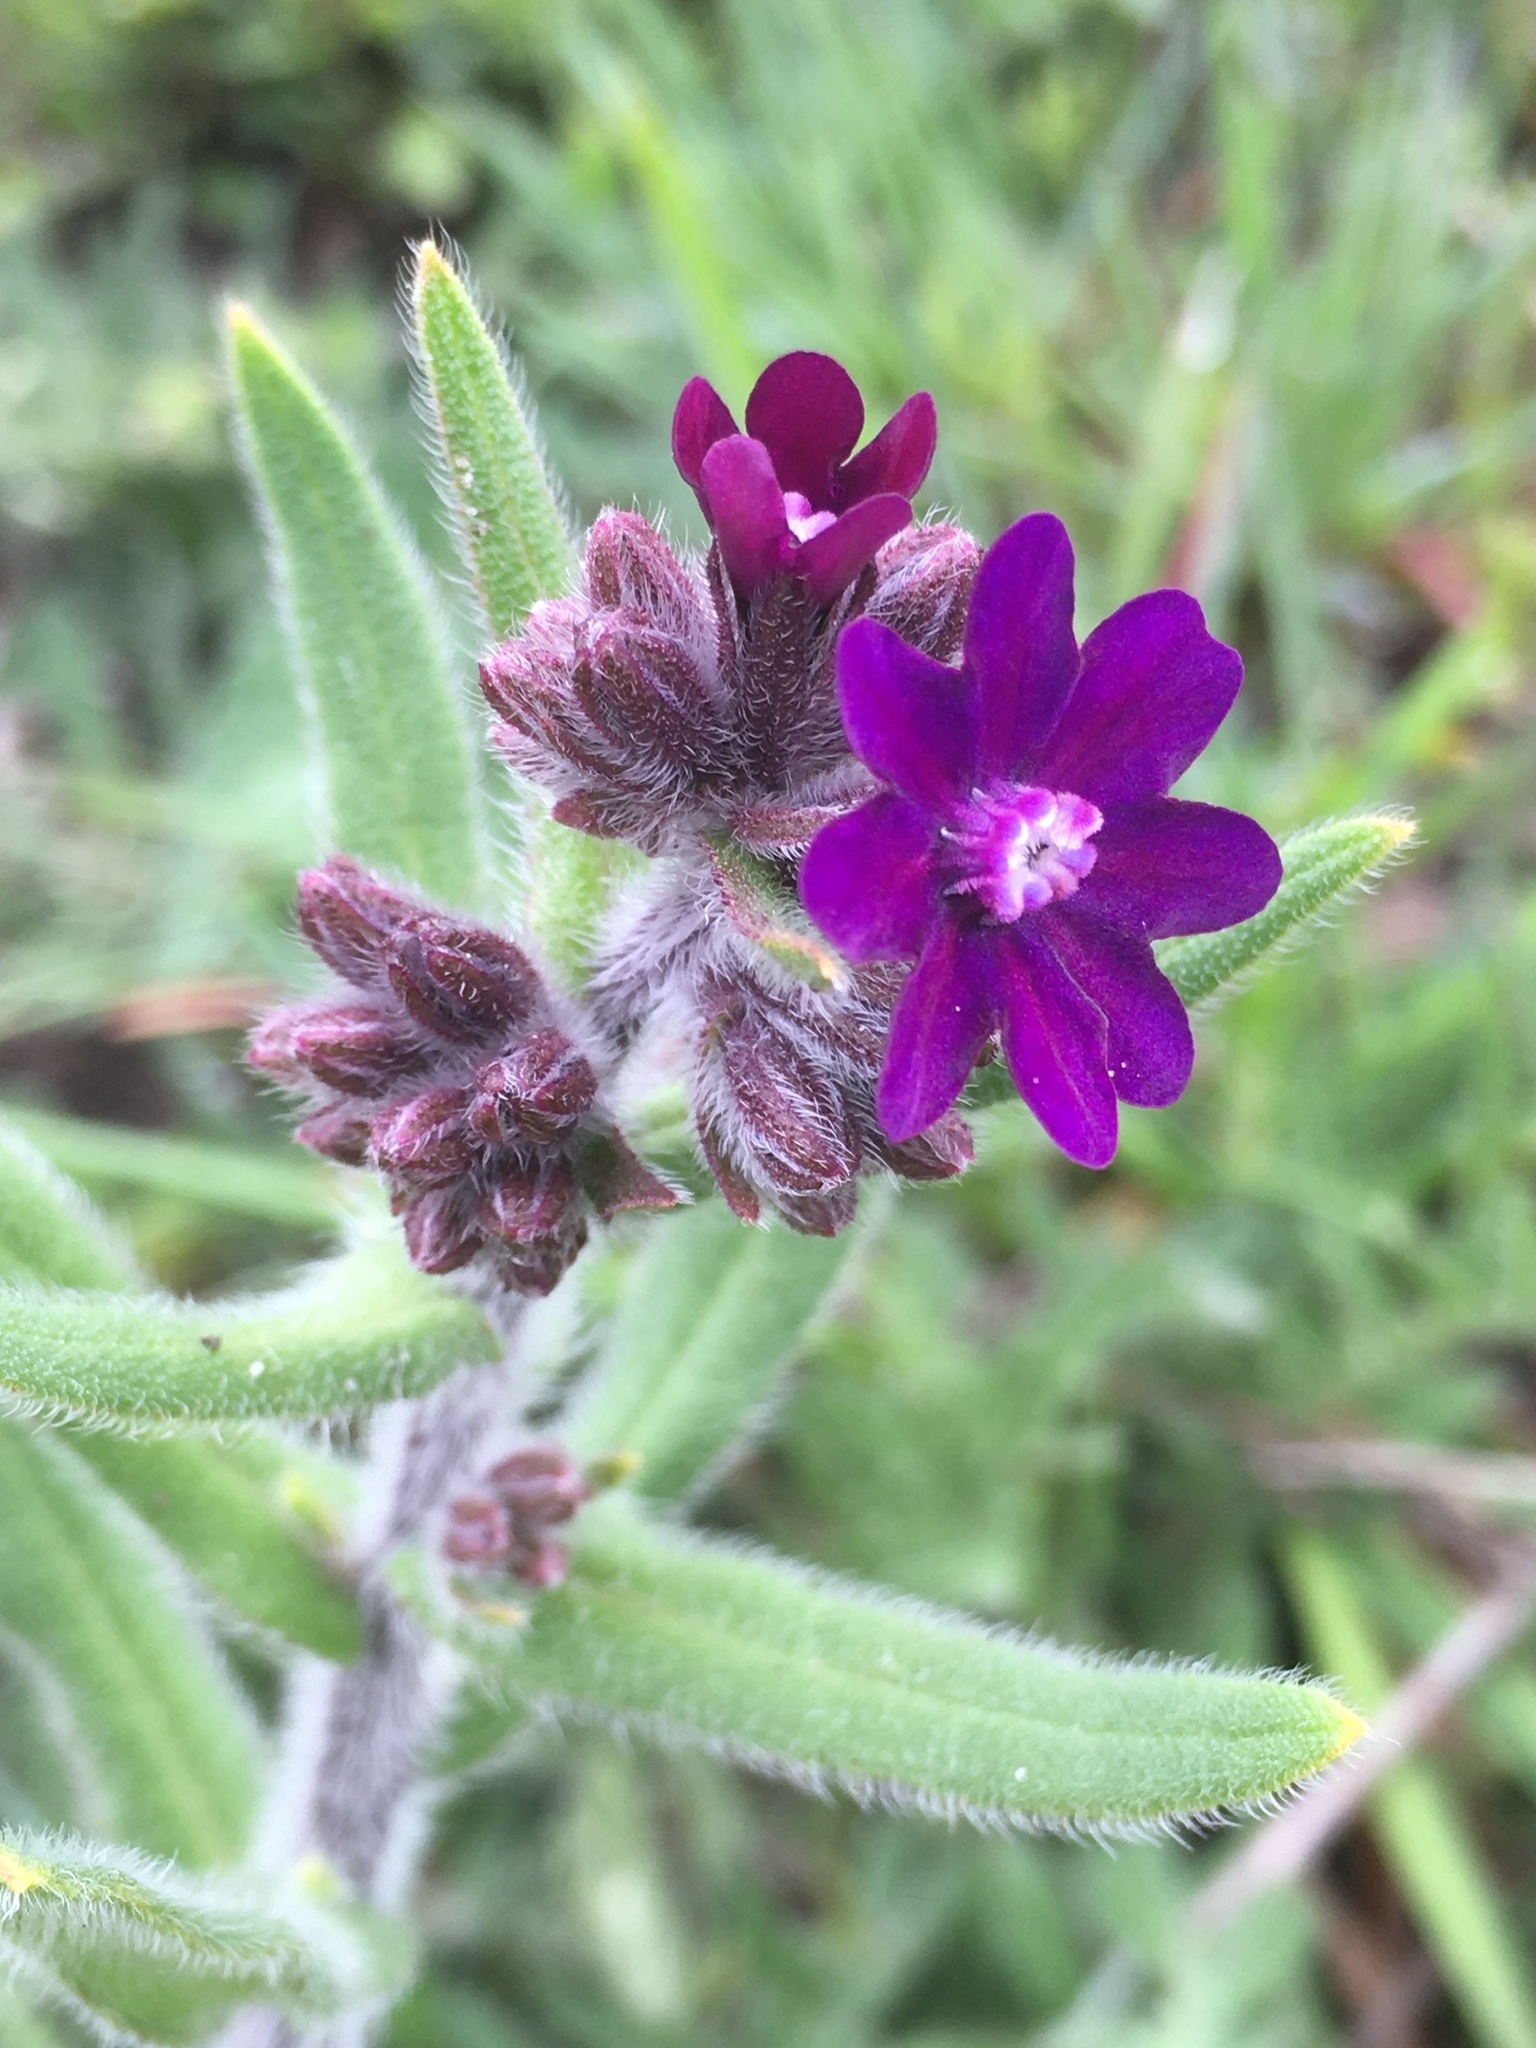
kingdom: Plantae
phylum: Tracheophyta
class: Magnoliopsida
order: Boraginales
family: Boraginaceae
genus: Anchusa
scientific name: Anchusa officinalis
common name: Alkanet
